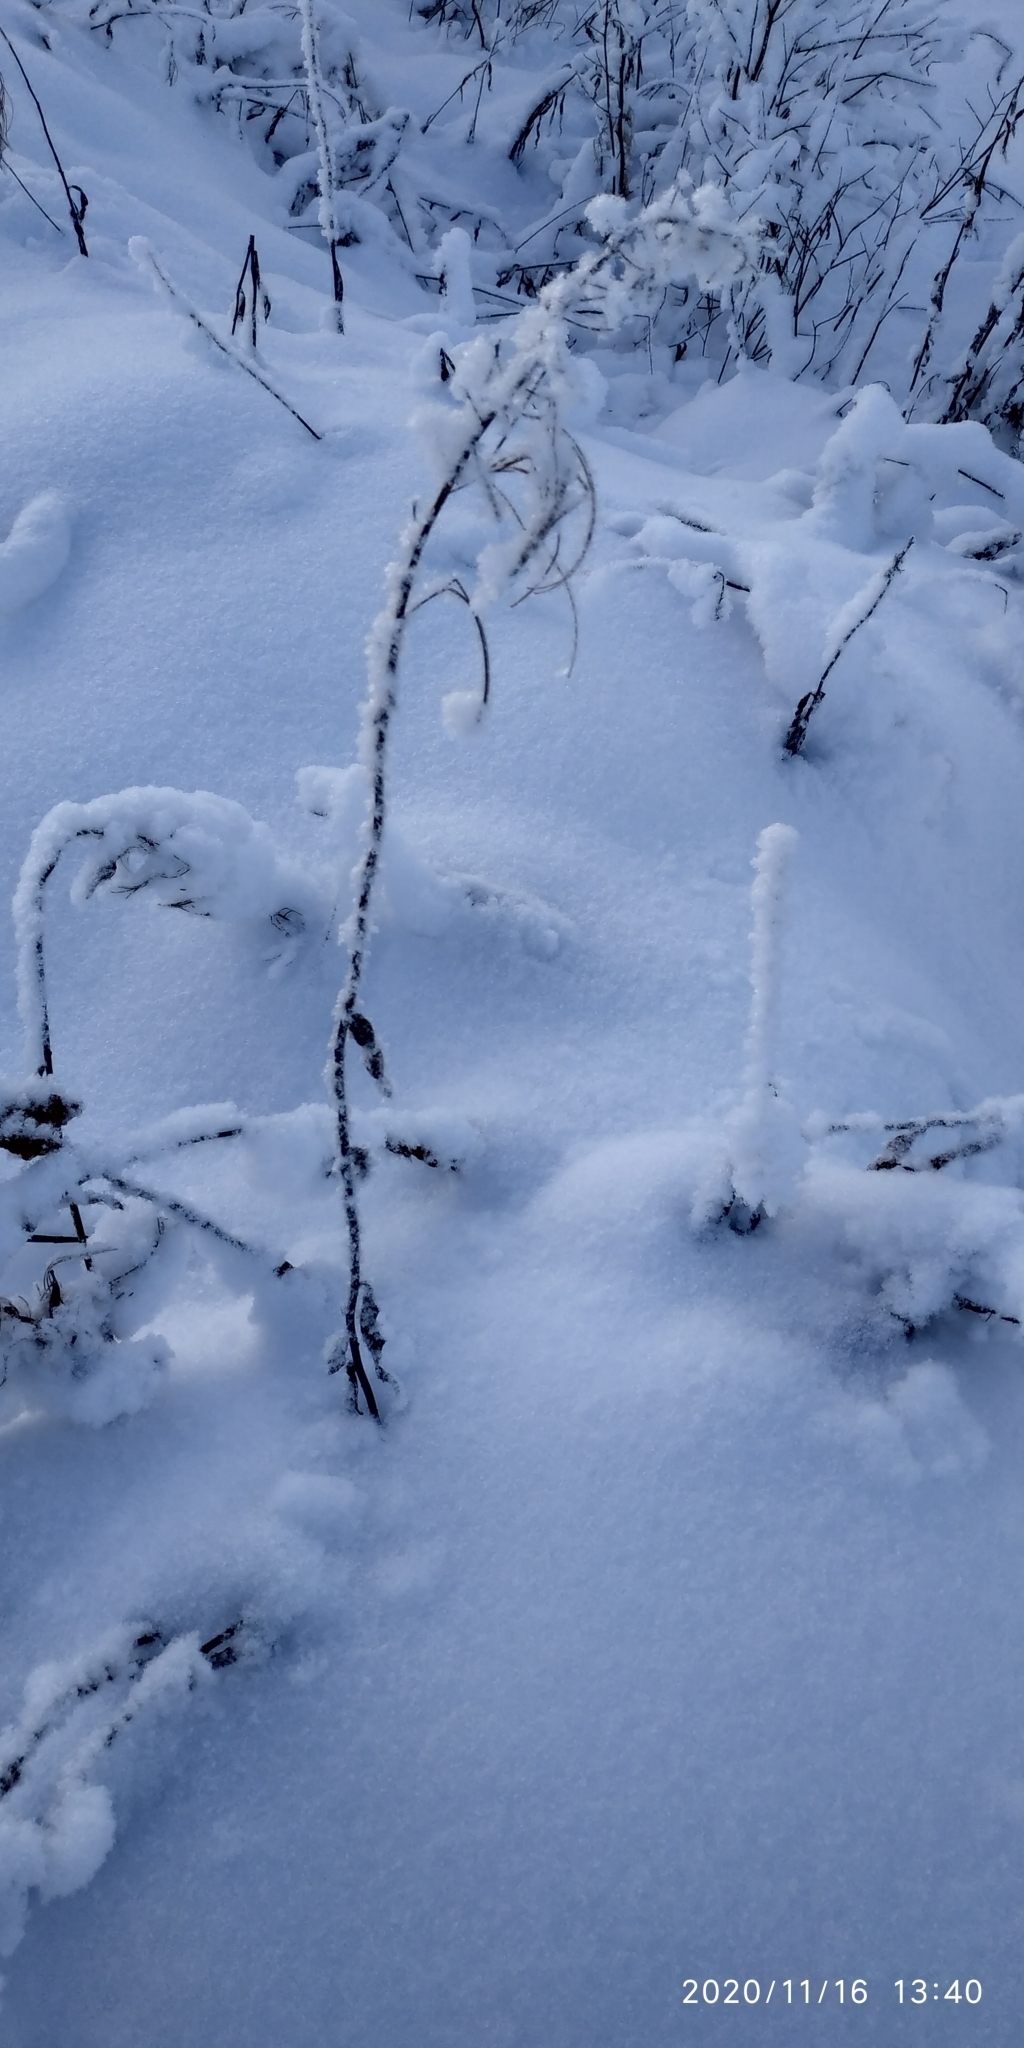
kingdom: Plantae
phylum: Tracheophyta
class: Magnoliopsida
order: Myrtales
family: Onagraceae
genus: Chamaenerion
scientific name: Chamaenerion angustifolium
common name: Fireweed
